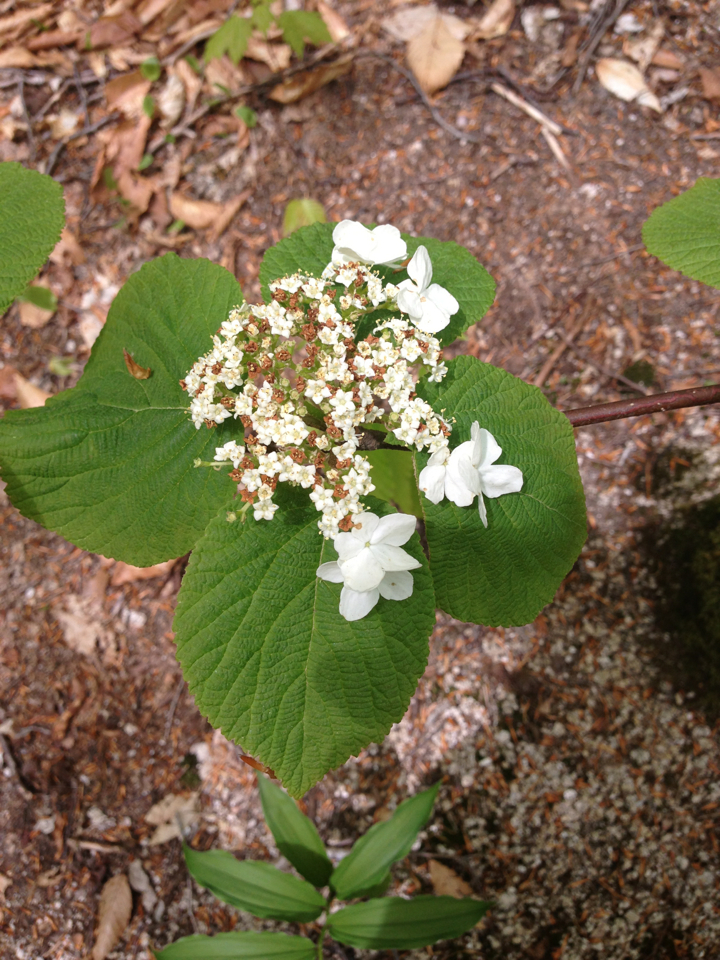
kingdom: Plantae
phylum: Tracheophyta
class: Magnoliopsida
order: Dipsacales
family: Viburnaceae
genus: Viburnum
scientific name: Viburnum lantanoides
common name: Hobblebush
